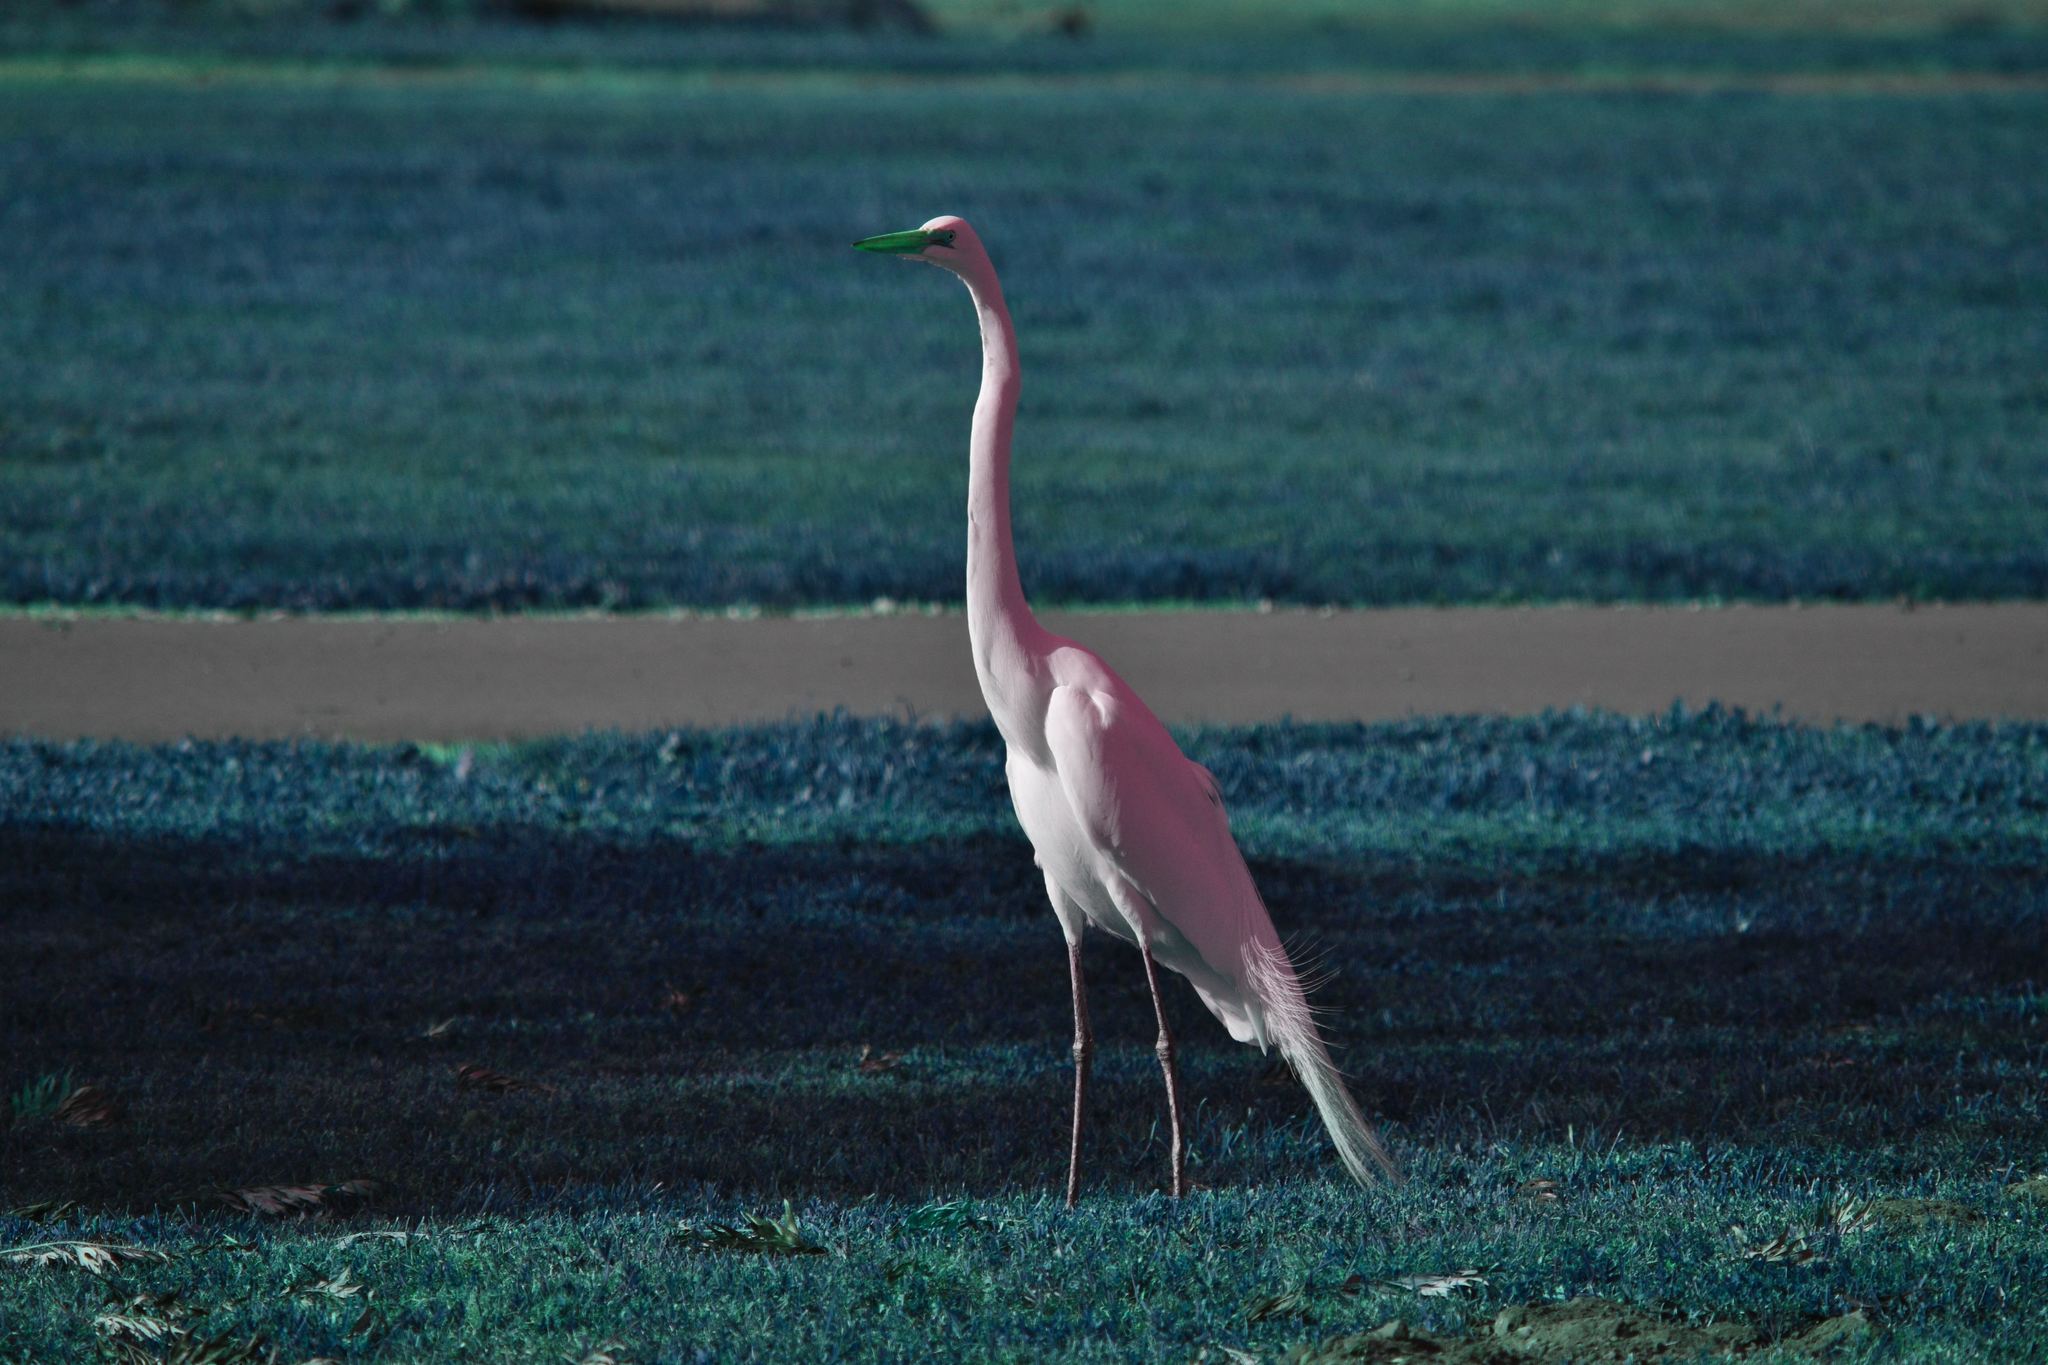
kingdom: Animalia
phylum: Chordata
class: Aves
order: Pelecaniformes
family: Ardeidae
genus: Ardea
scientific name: Ardea alba
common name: Great egret
